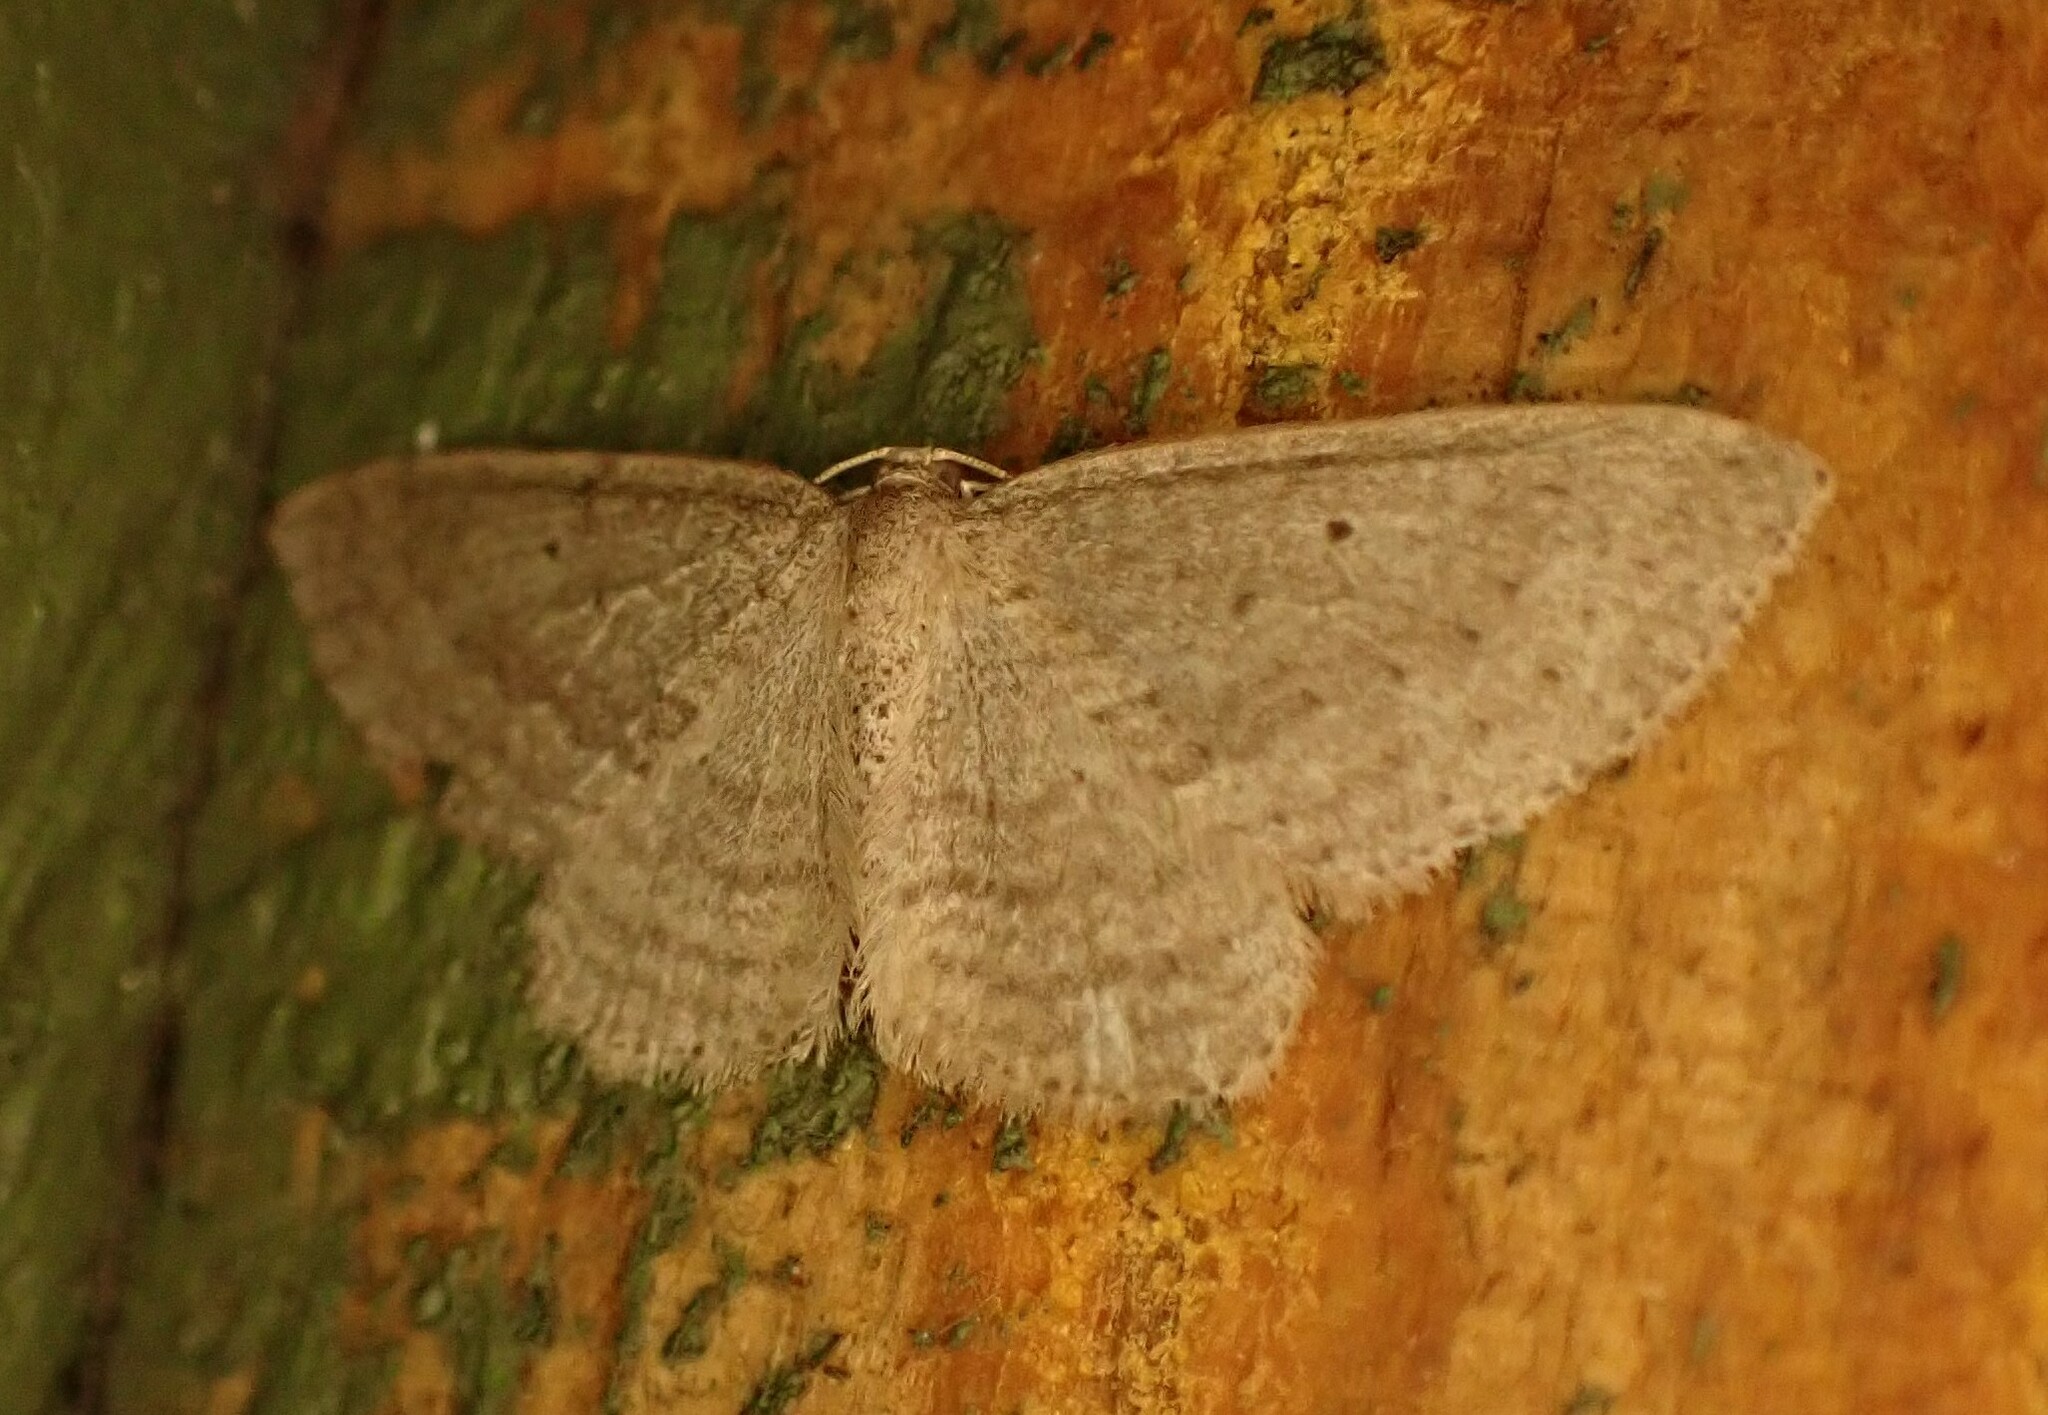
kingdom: Animalia
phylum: Arthropoda
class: Insecta
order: Lepidoptera
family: Geometridae
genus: Poecilasthena
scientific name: Poecilasthena schistaria
